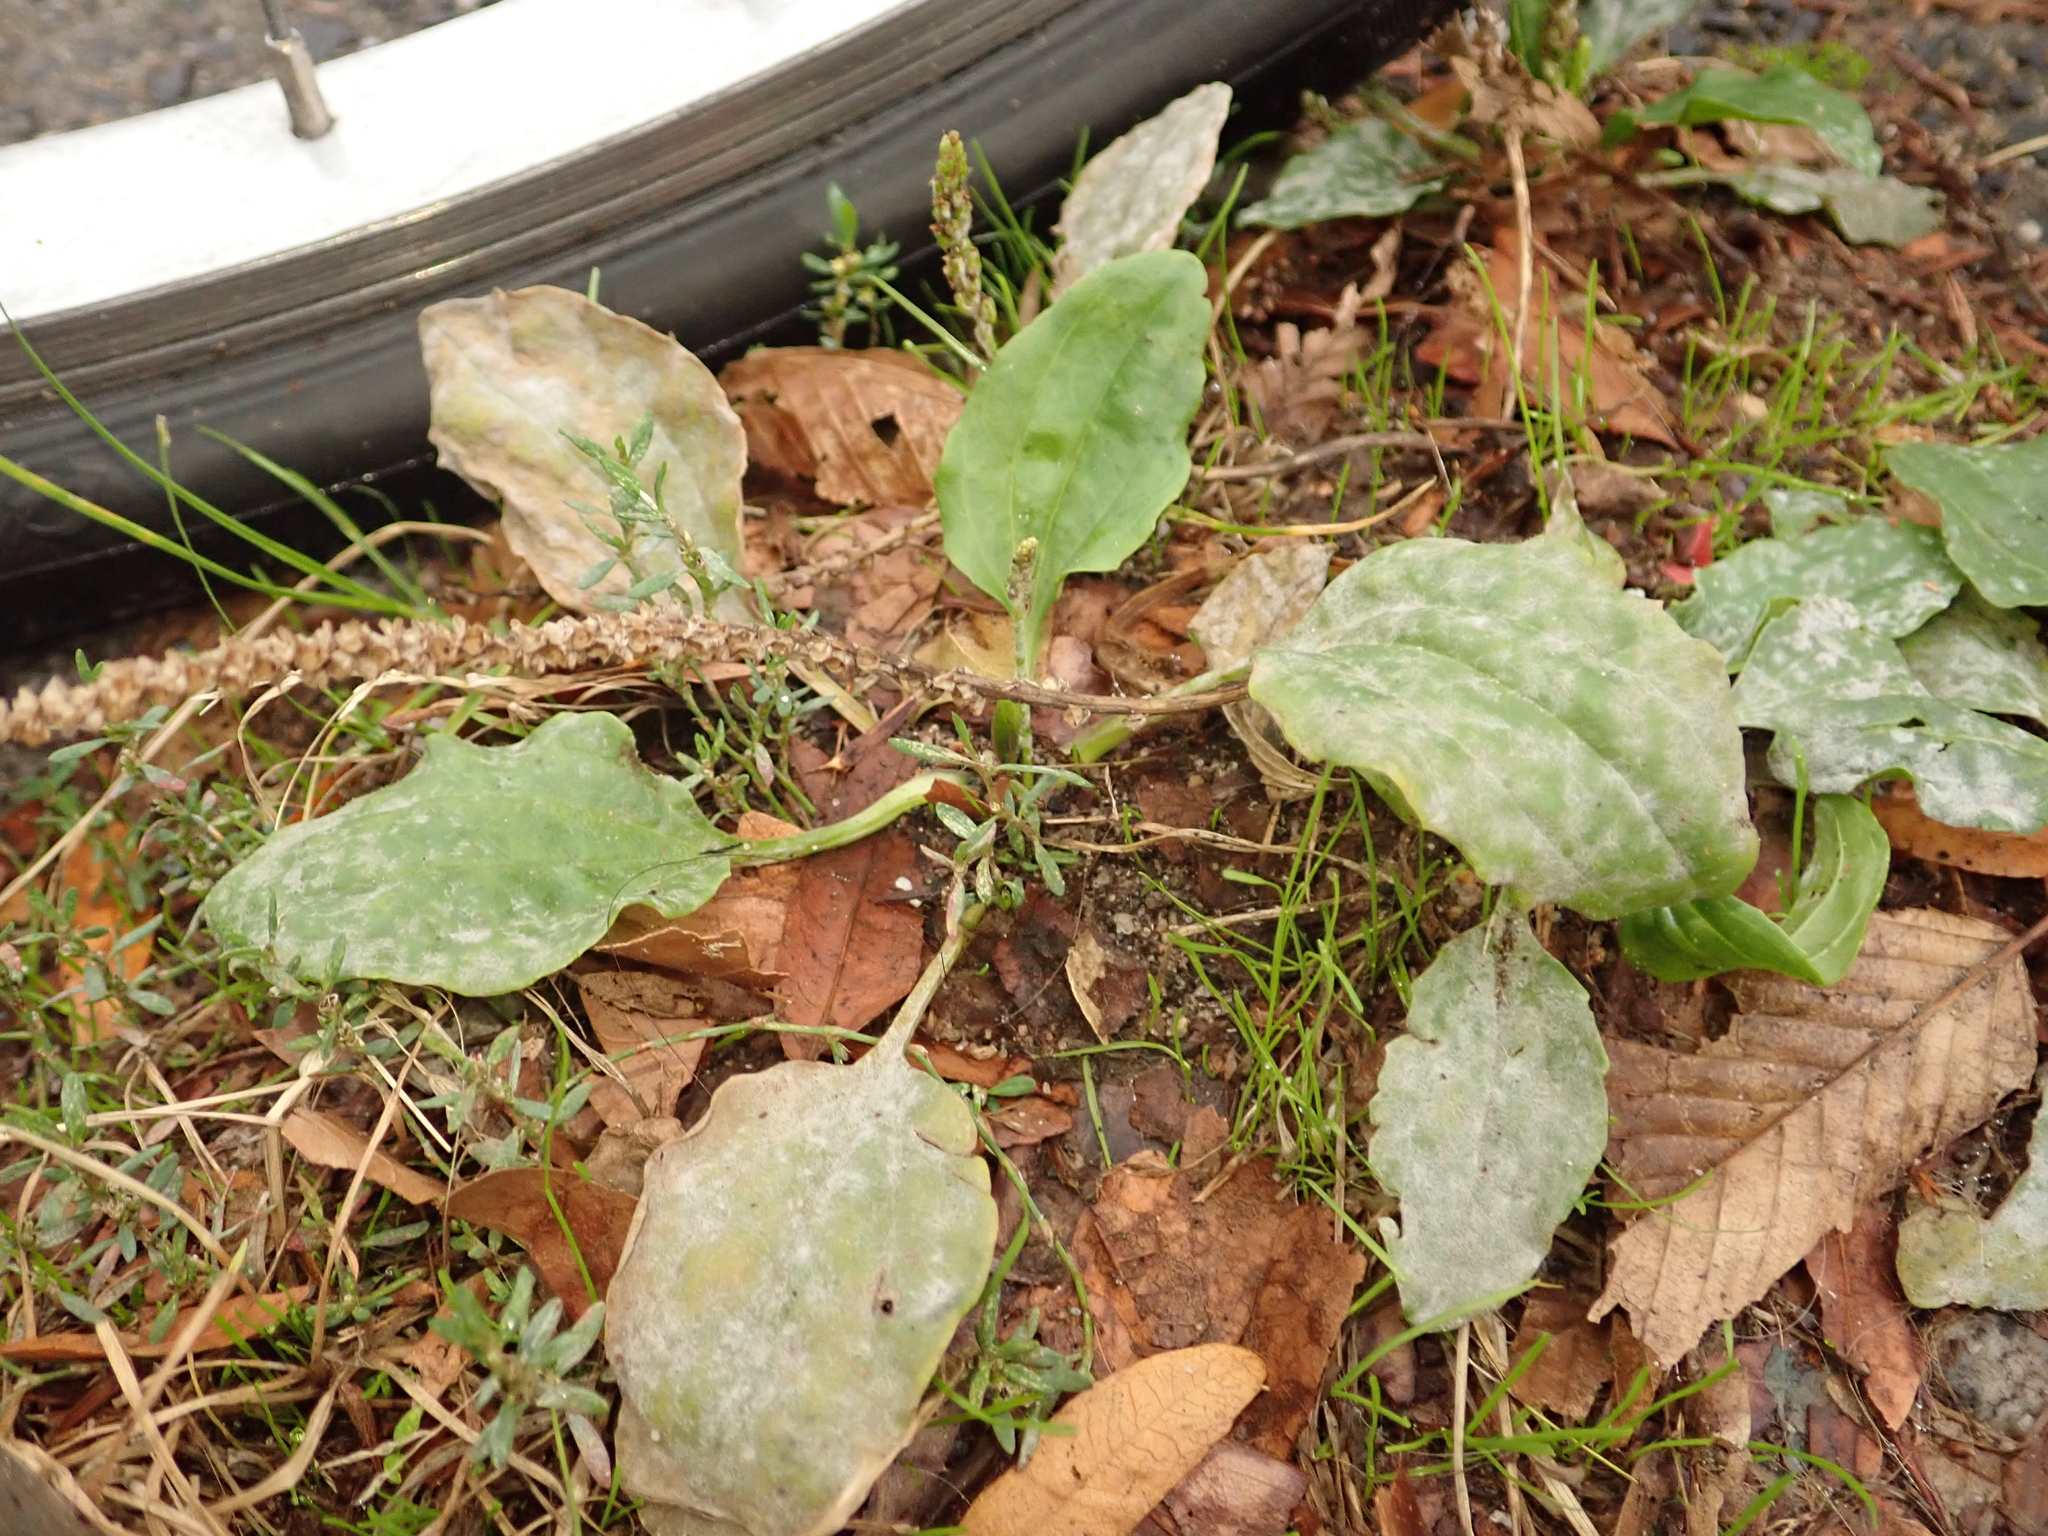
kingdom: Plantae
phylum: Tracheophyta
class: Magnoliopsida
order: Lamiales
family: Plantaginaceae
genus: Plantago
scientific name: Plantago major
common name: Common plantain
